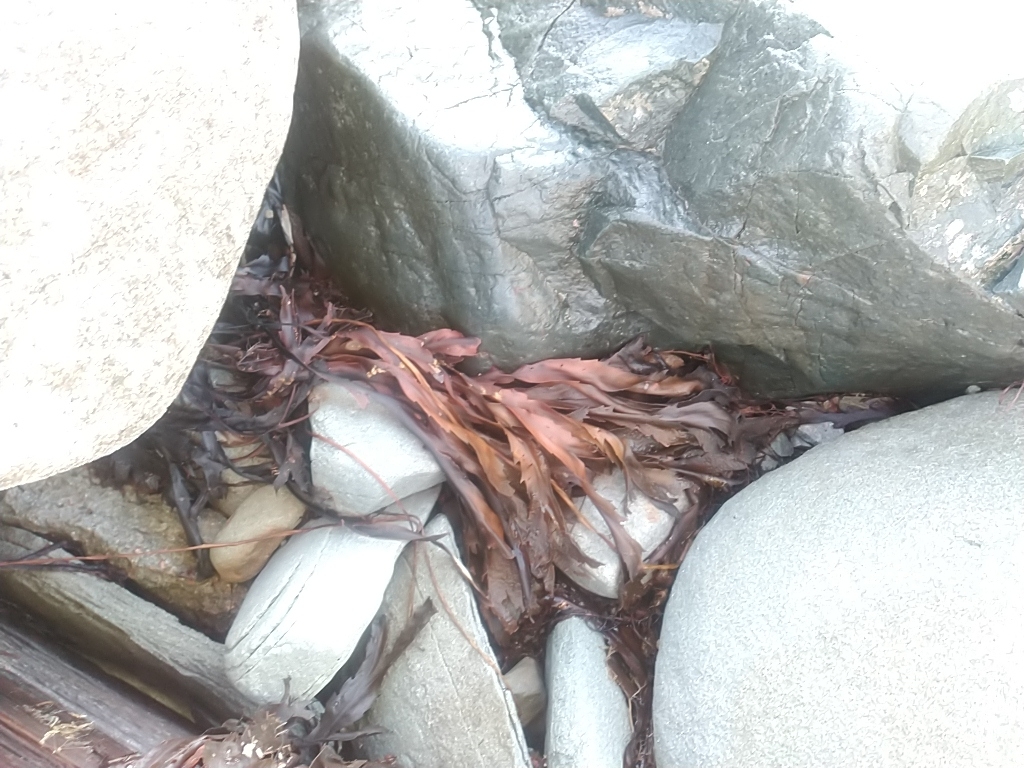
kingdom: Chromista
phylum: Ochrophyta
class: Phaeophyceae
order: Fucales
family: Fucaceae
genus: Fucus
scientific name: Fucus serratus
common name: Toothed wrack
